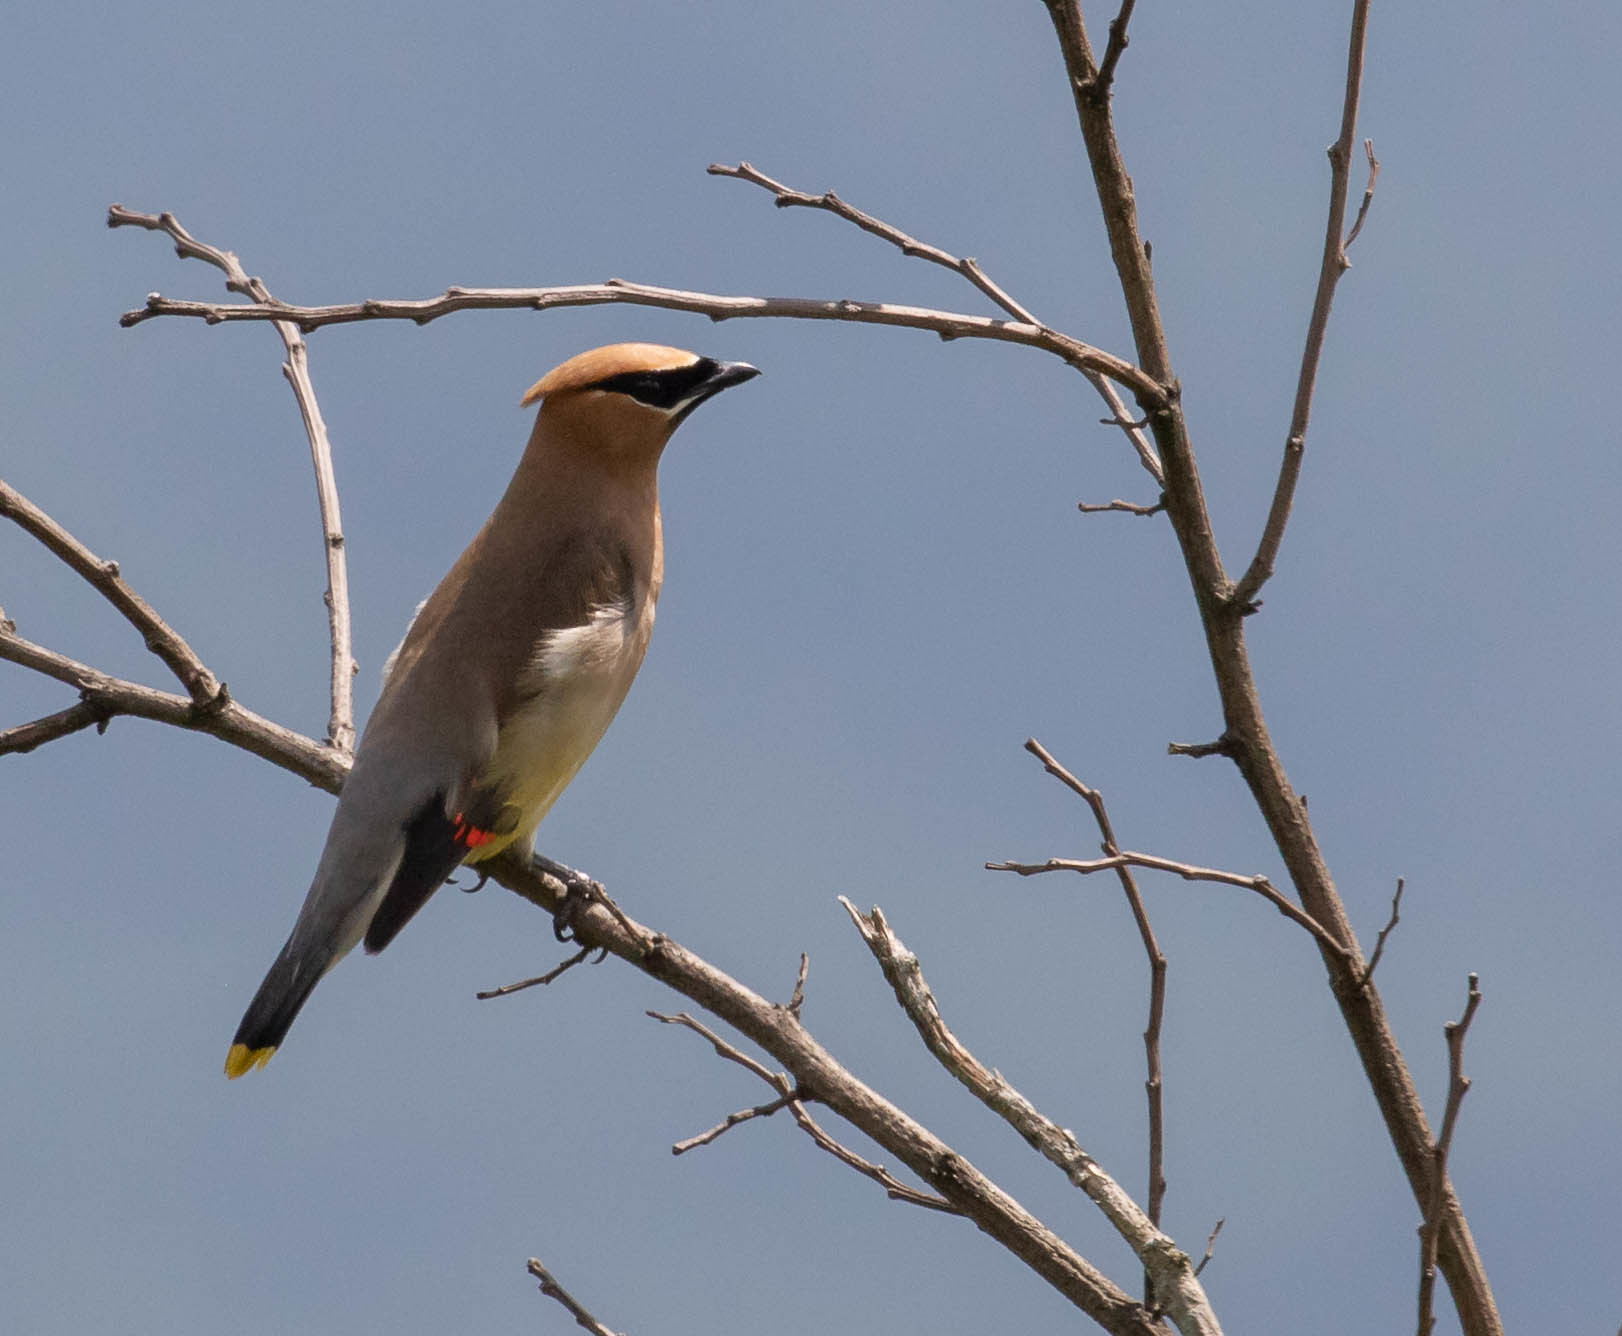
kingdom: Animalia
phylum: Chordata
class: Aves
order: Passeriformes
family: Bombycillidae
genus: Bombycilla
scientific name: Bombycilla cedrorum
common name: Cedar waxwing
